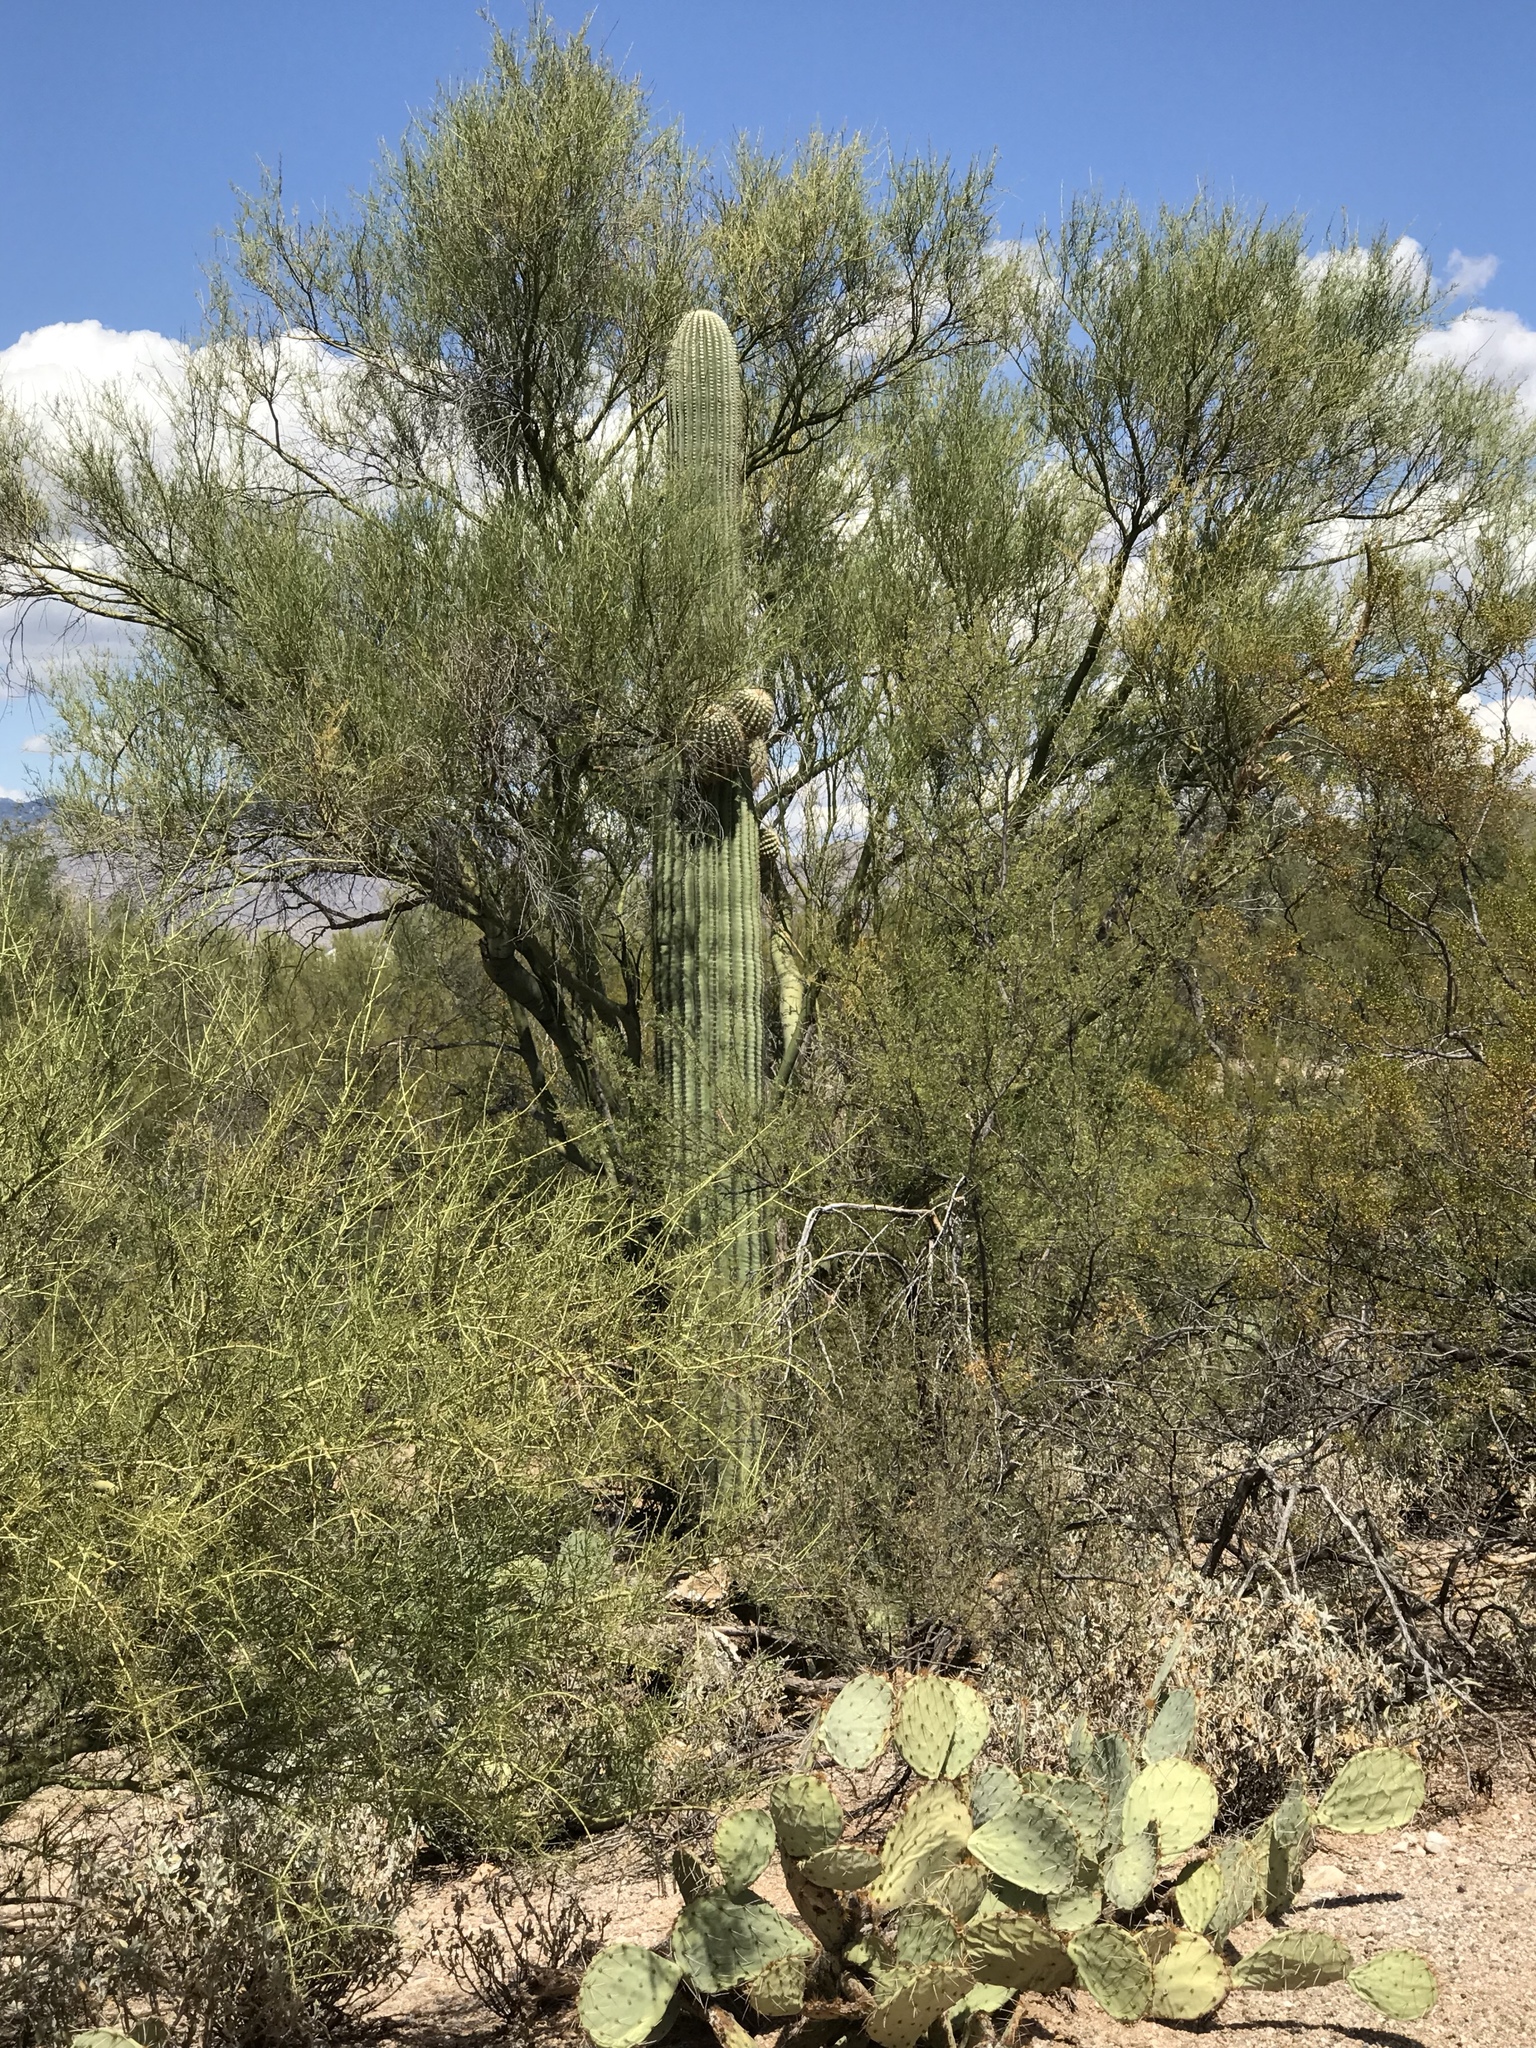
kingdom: Plantae
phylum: Tracheophyta
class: Magnoliopsida
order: Caryophyllales
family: Cactaceae
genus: Carnegiea
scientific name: Carnegiea gigantea
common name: Saguaro
